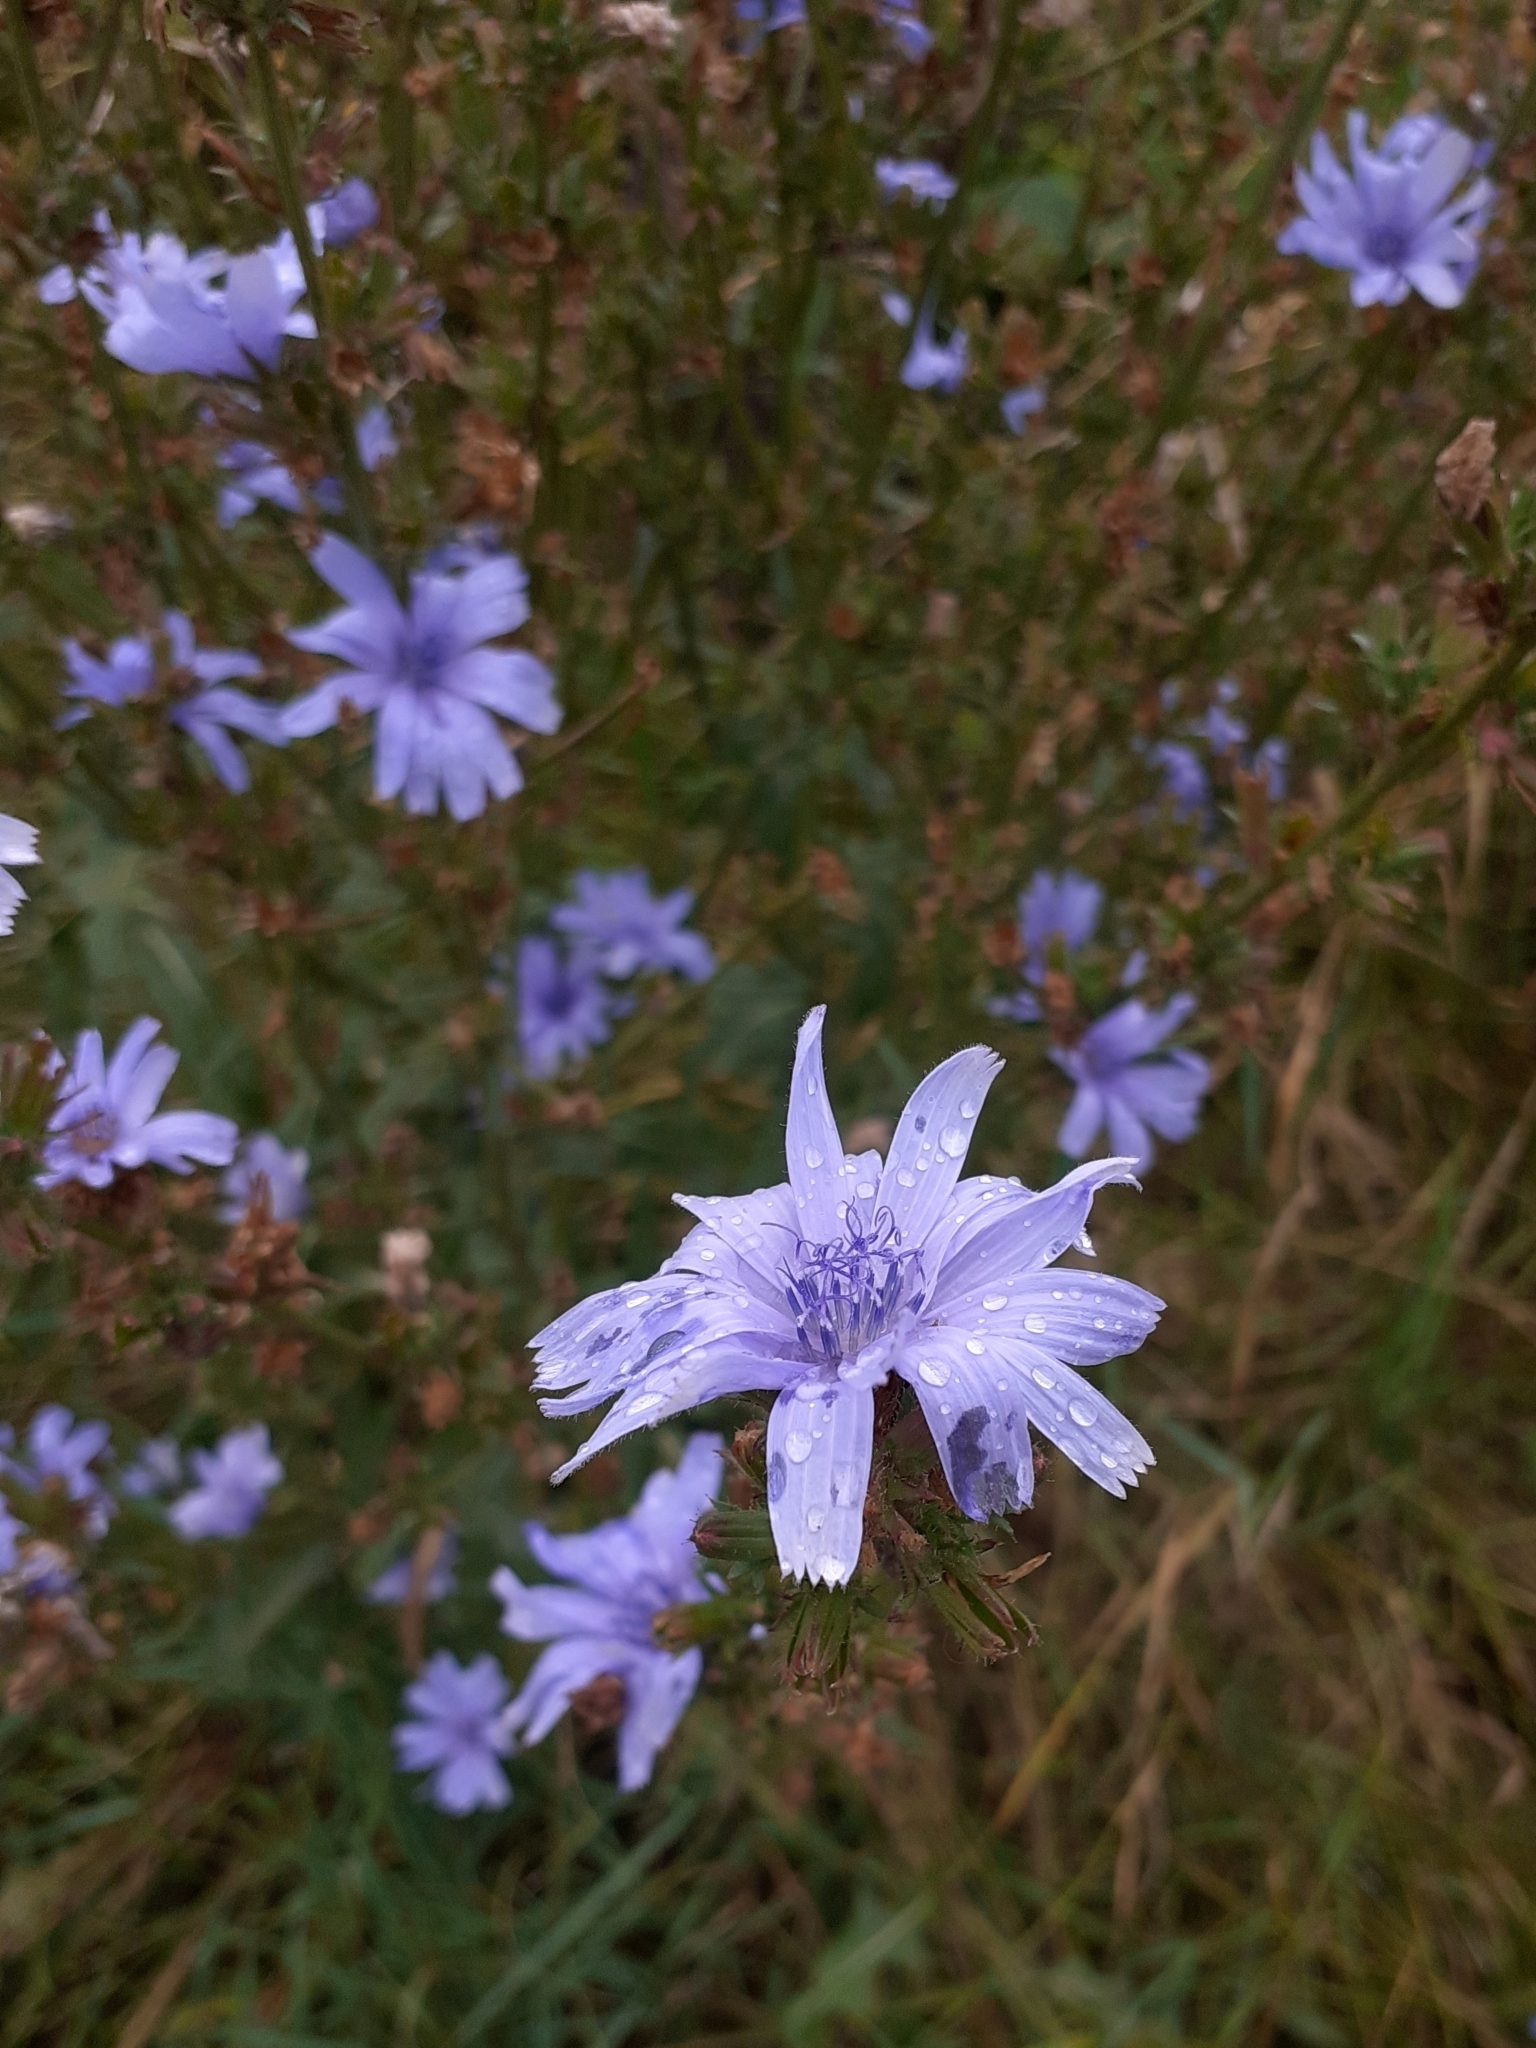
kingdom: Plantae
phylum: Tracheophyta
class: Magnoliopsida
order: Asterales
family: Asteraceae
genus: Cichorium
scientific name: Cichorium intybus
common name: Chicory
